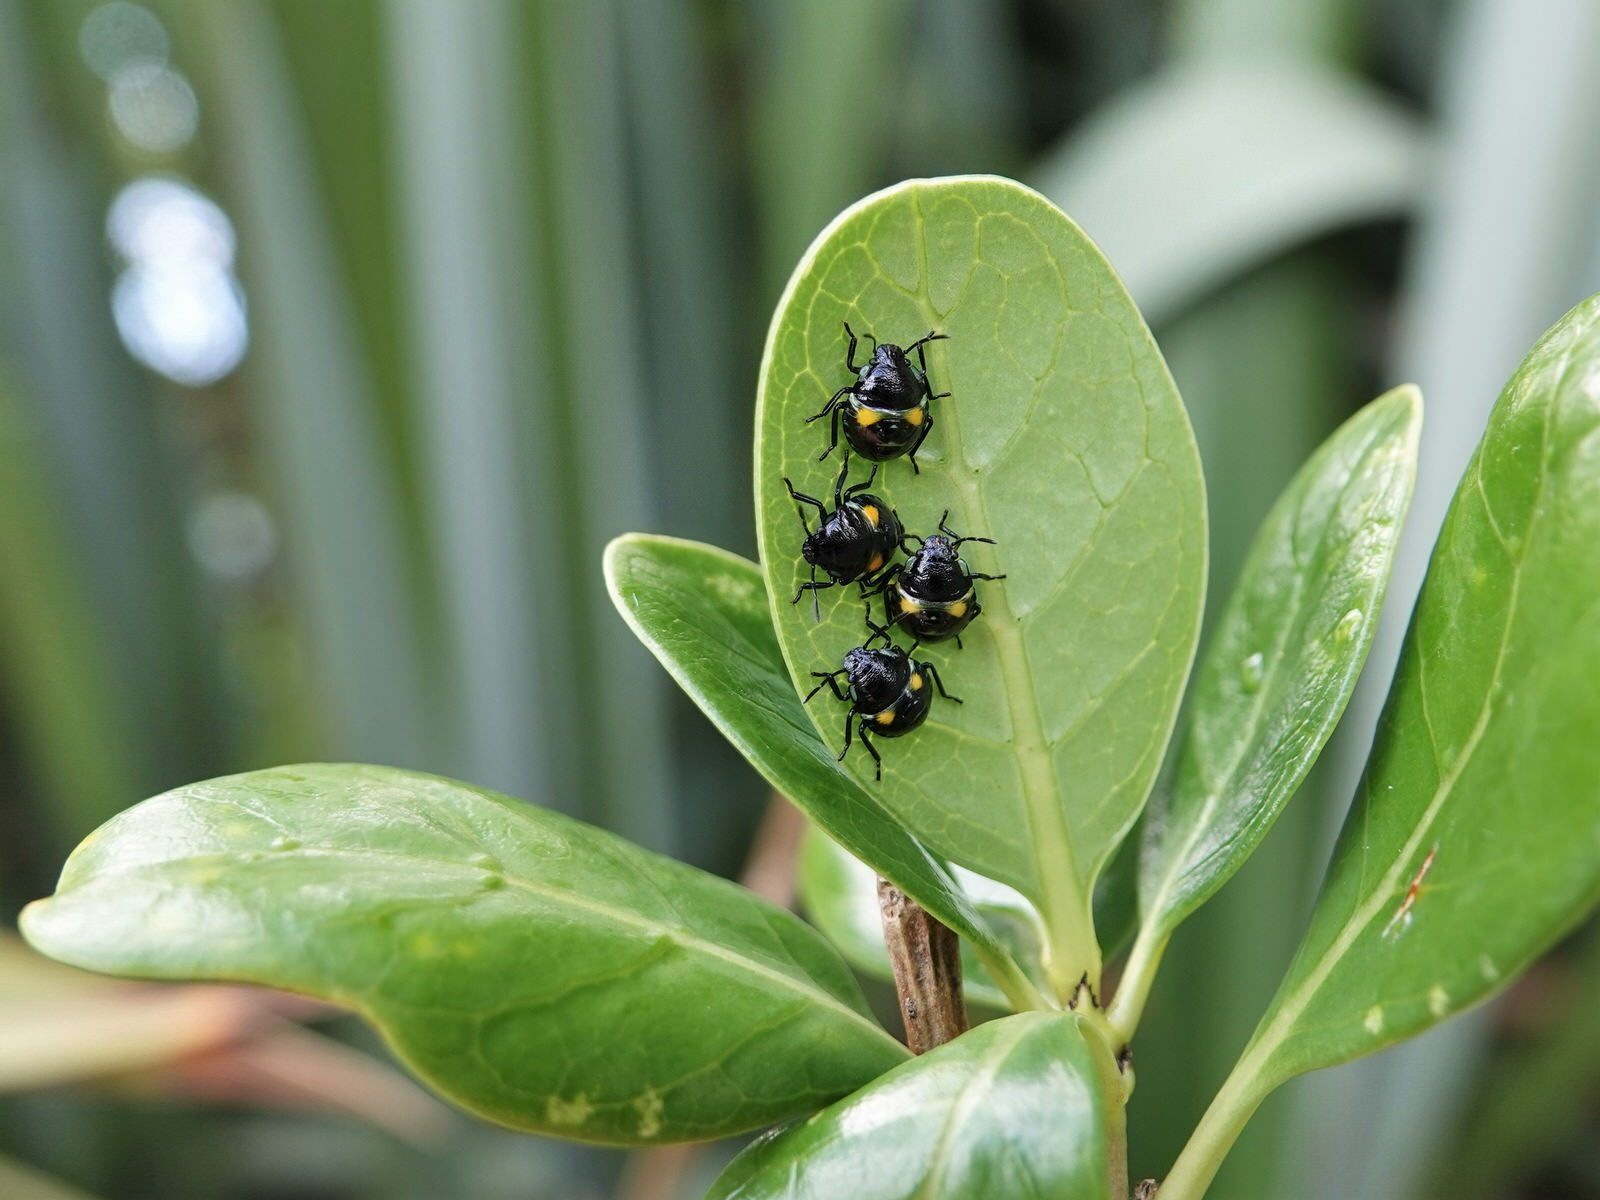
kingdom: Animalia
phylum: Arthropoda
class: Insecta
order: Hemiptera
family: Pentatomidae
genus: Glaucias
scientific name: Glaucias amyota
